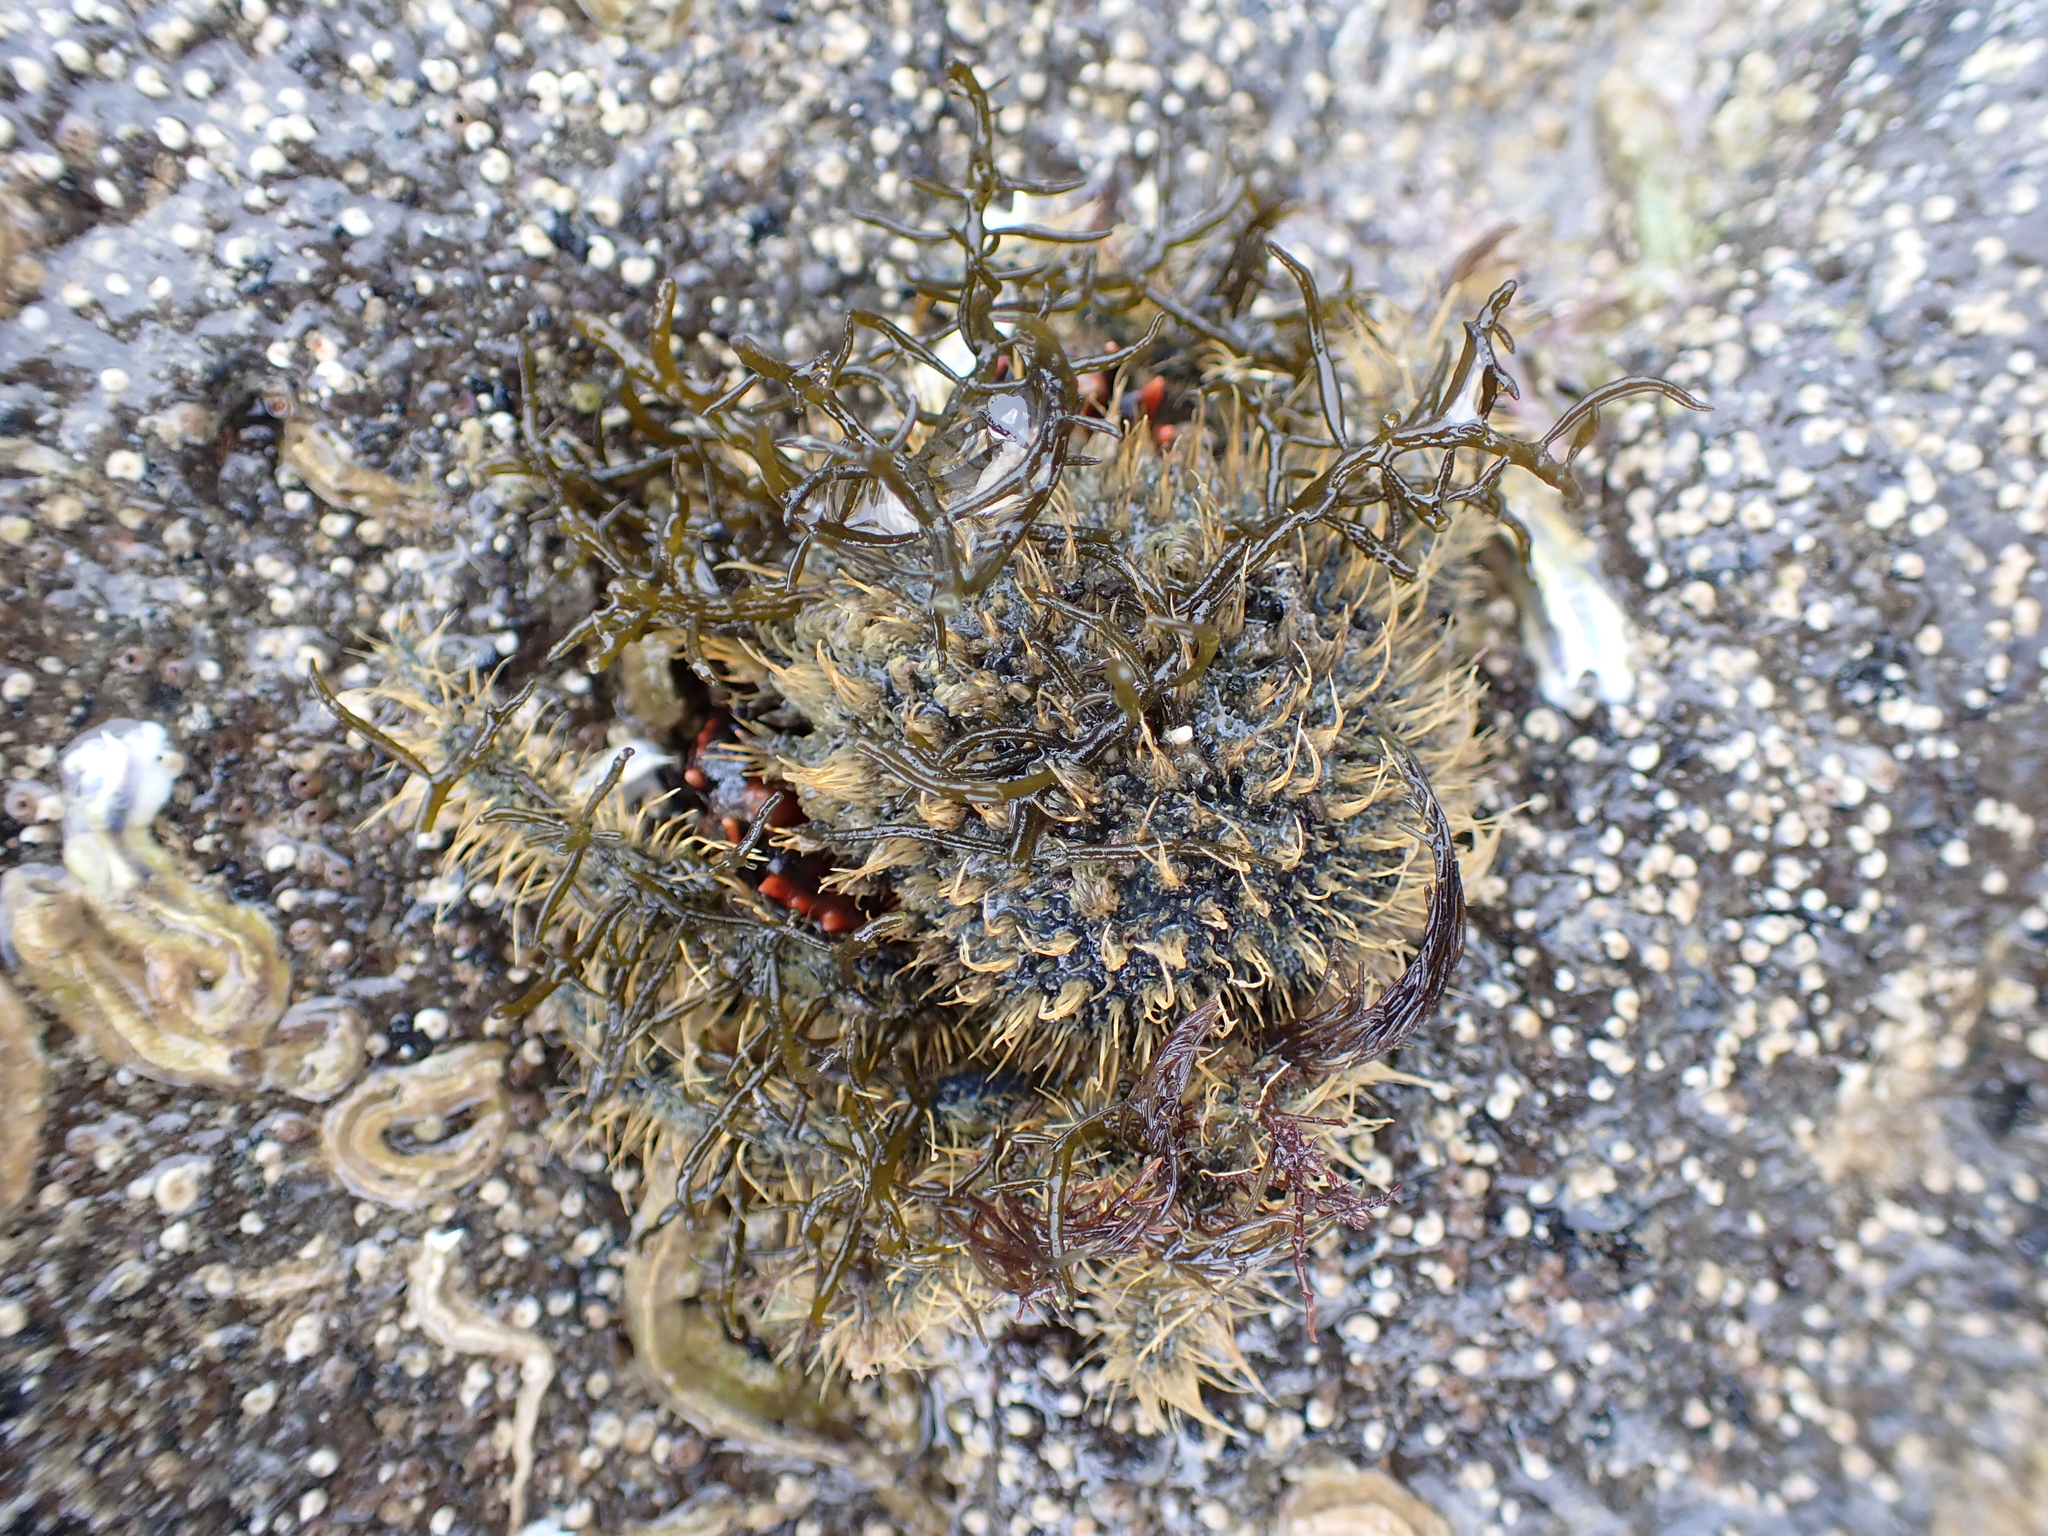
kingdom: Animalia
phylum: Arthropoda
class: Malacostraca
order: Decapoda
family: Majidae
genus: Notomithrax
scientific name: Notomithrax ursus
